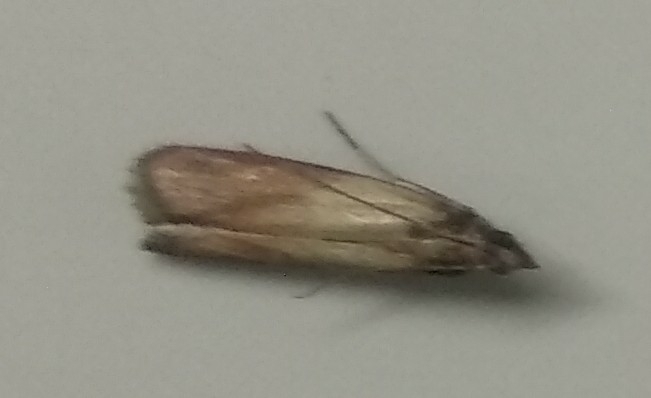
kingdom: Animalia
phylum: Arthropoda
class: Insecta
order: Lepidoptera
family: Pyralidae
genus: Plodia
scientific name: Plodia interpunctella
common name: Indian meal moth
